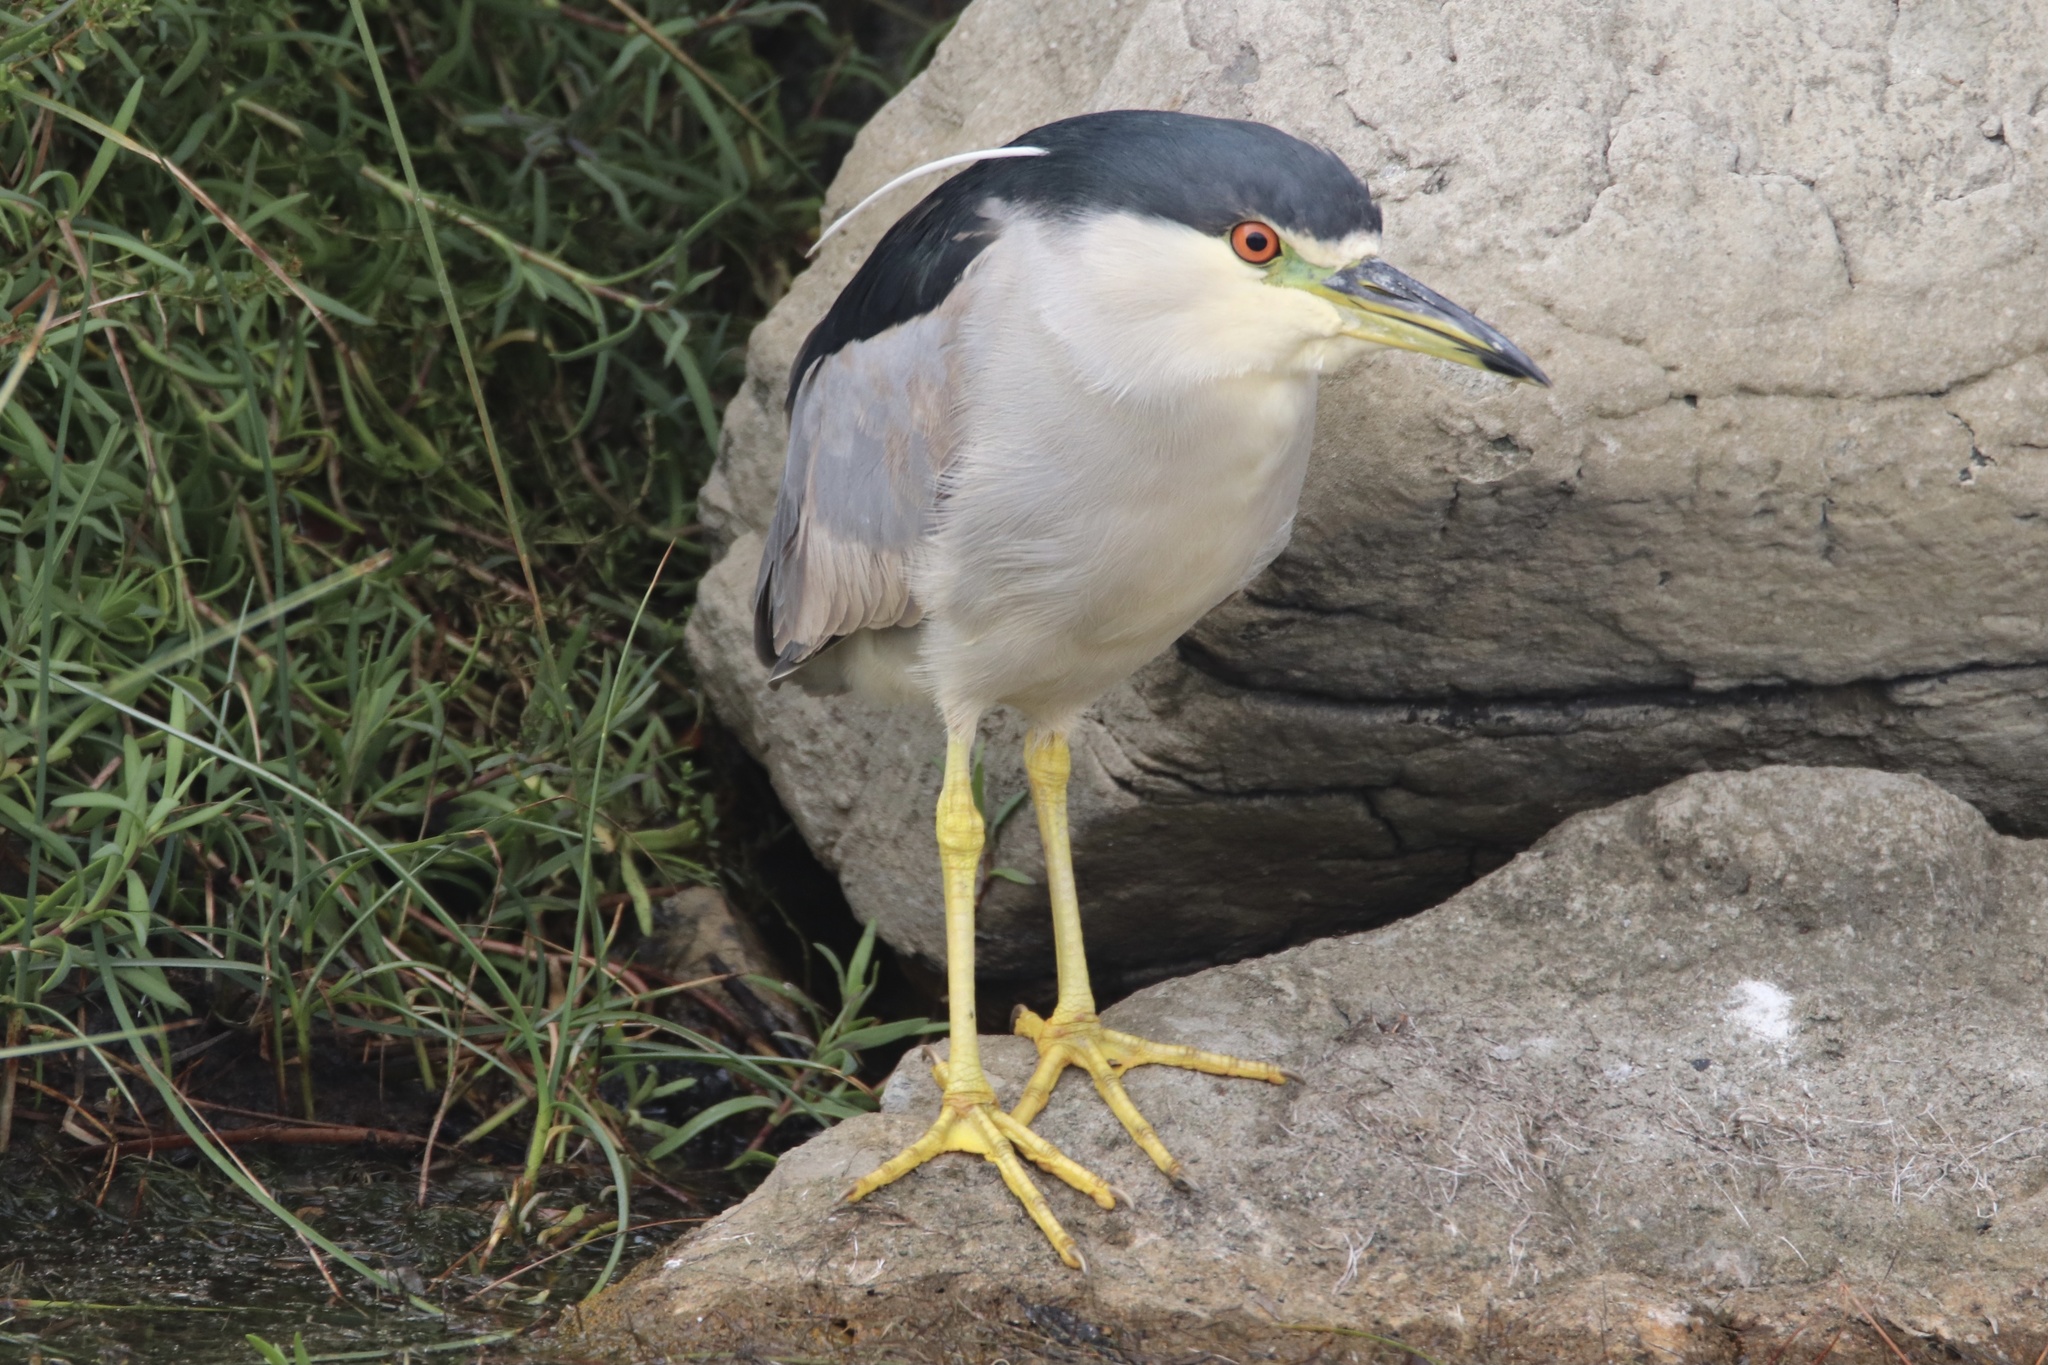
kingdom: Animalia
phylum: Chordata
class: Aves
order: Pelecaniformes
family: Ardeidae
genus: Nycticorax
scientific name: Nycticorax nycticorax
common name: Black-crowned night heron
